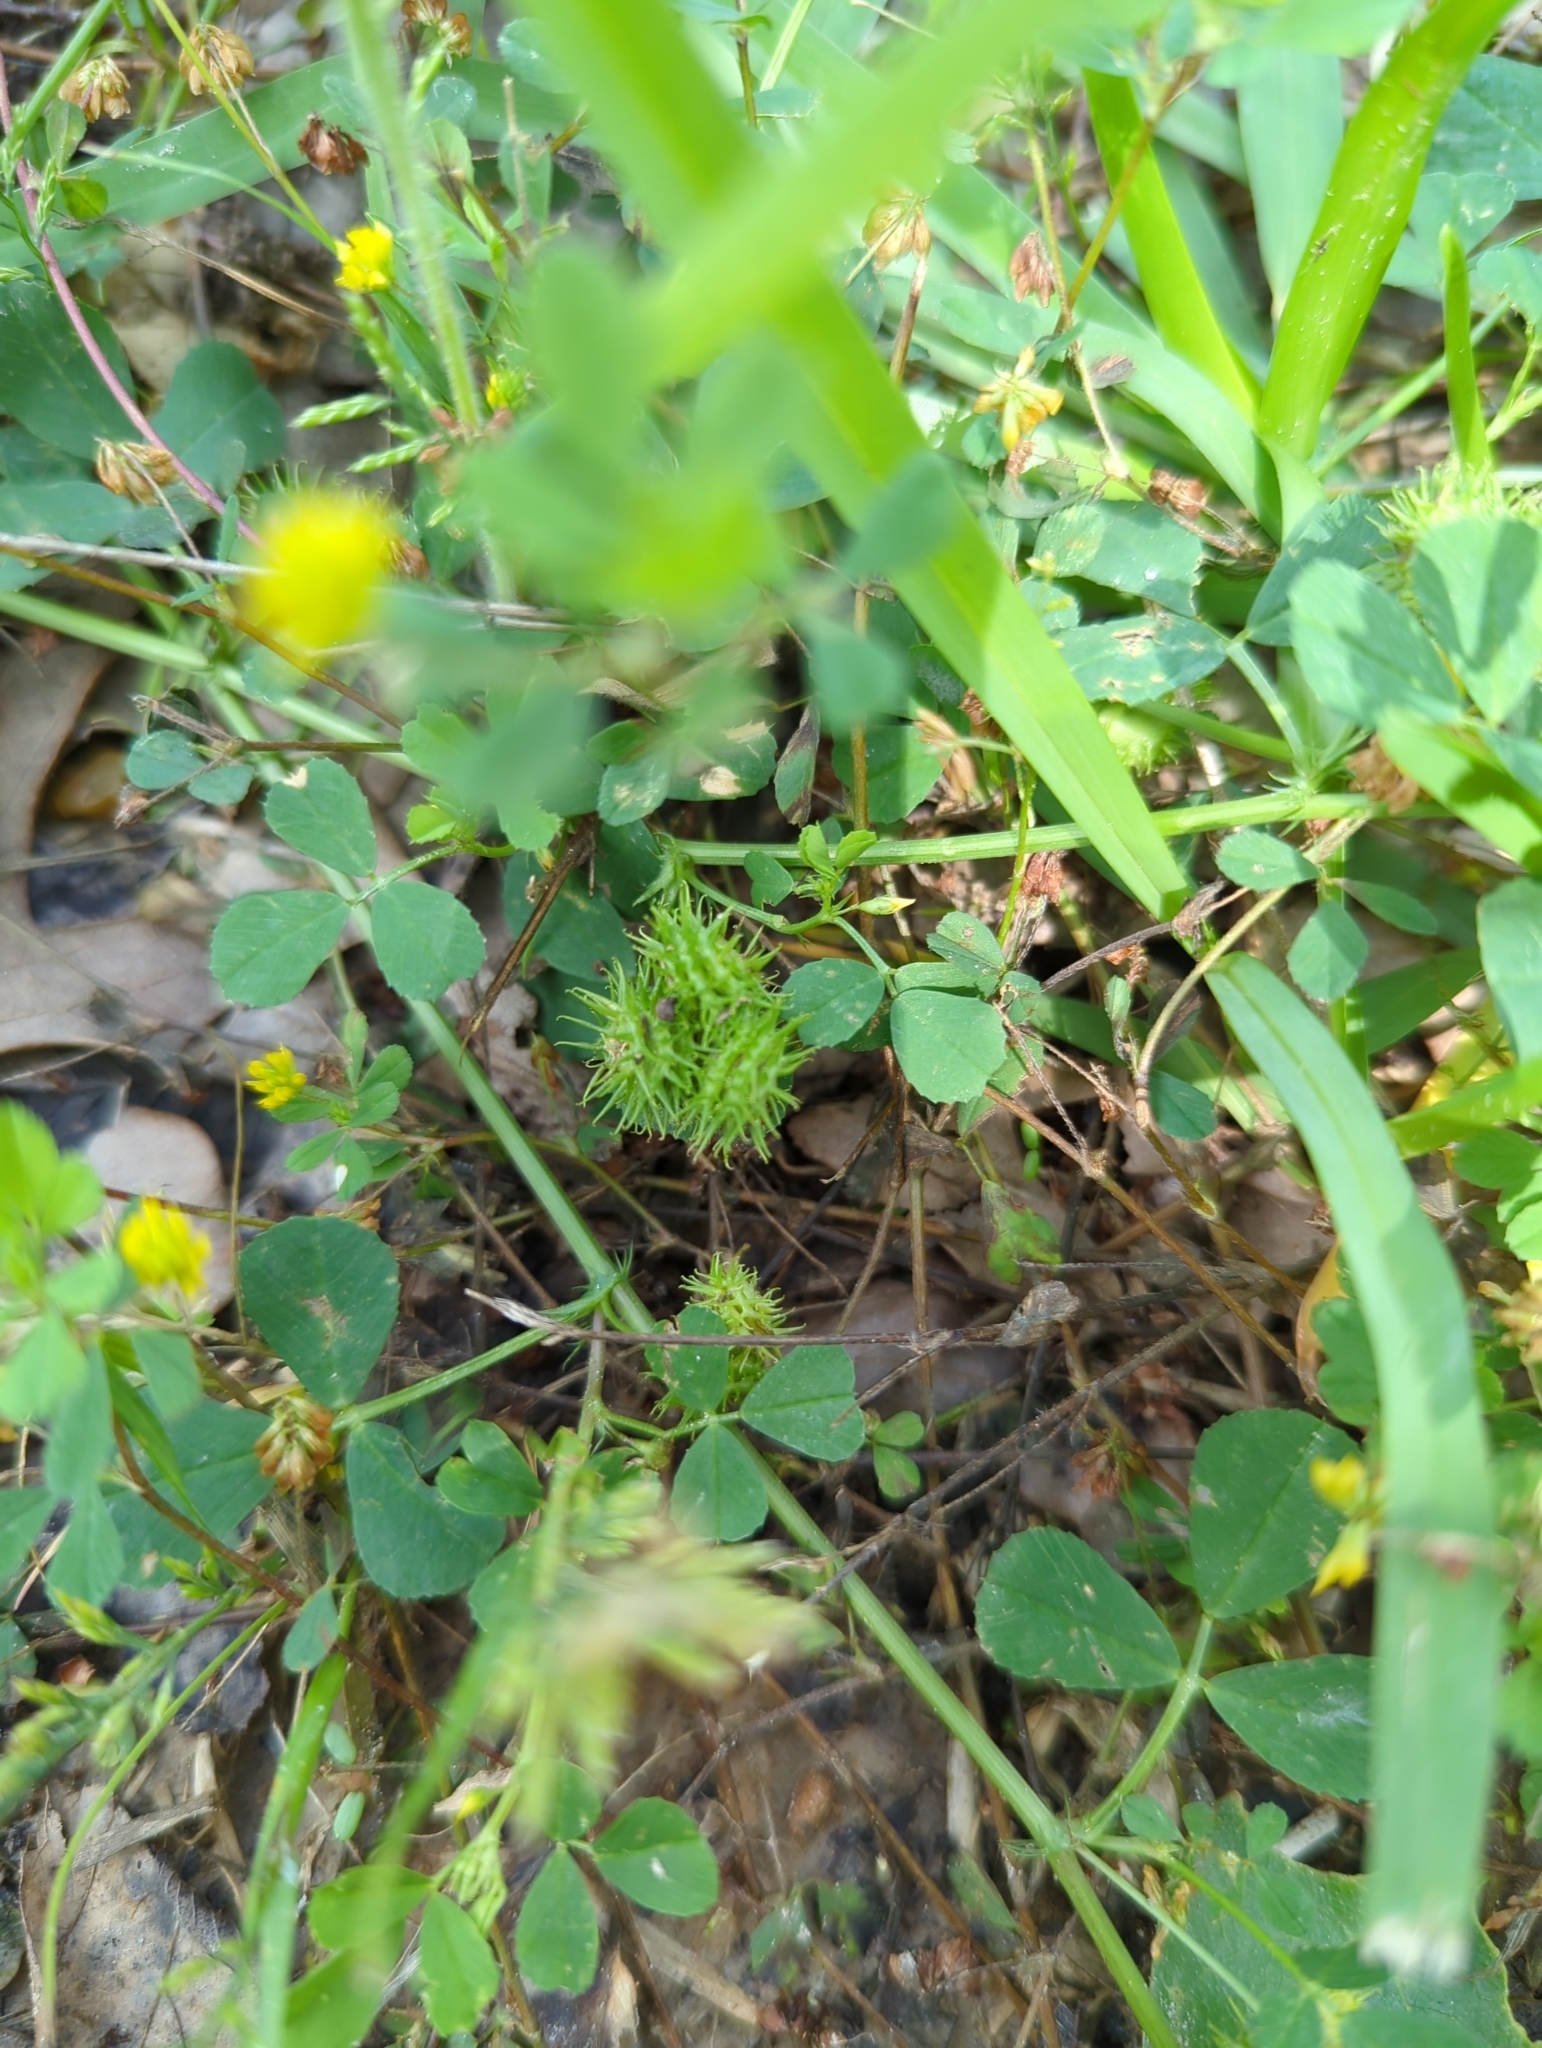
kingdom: Plantae
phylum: Tracheophyta
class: Magnoliopsida
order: Fabales
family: Fabaceae
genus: Medicago
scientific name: Medicago minima
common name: Little bur-clover
